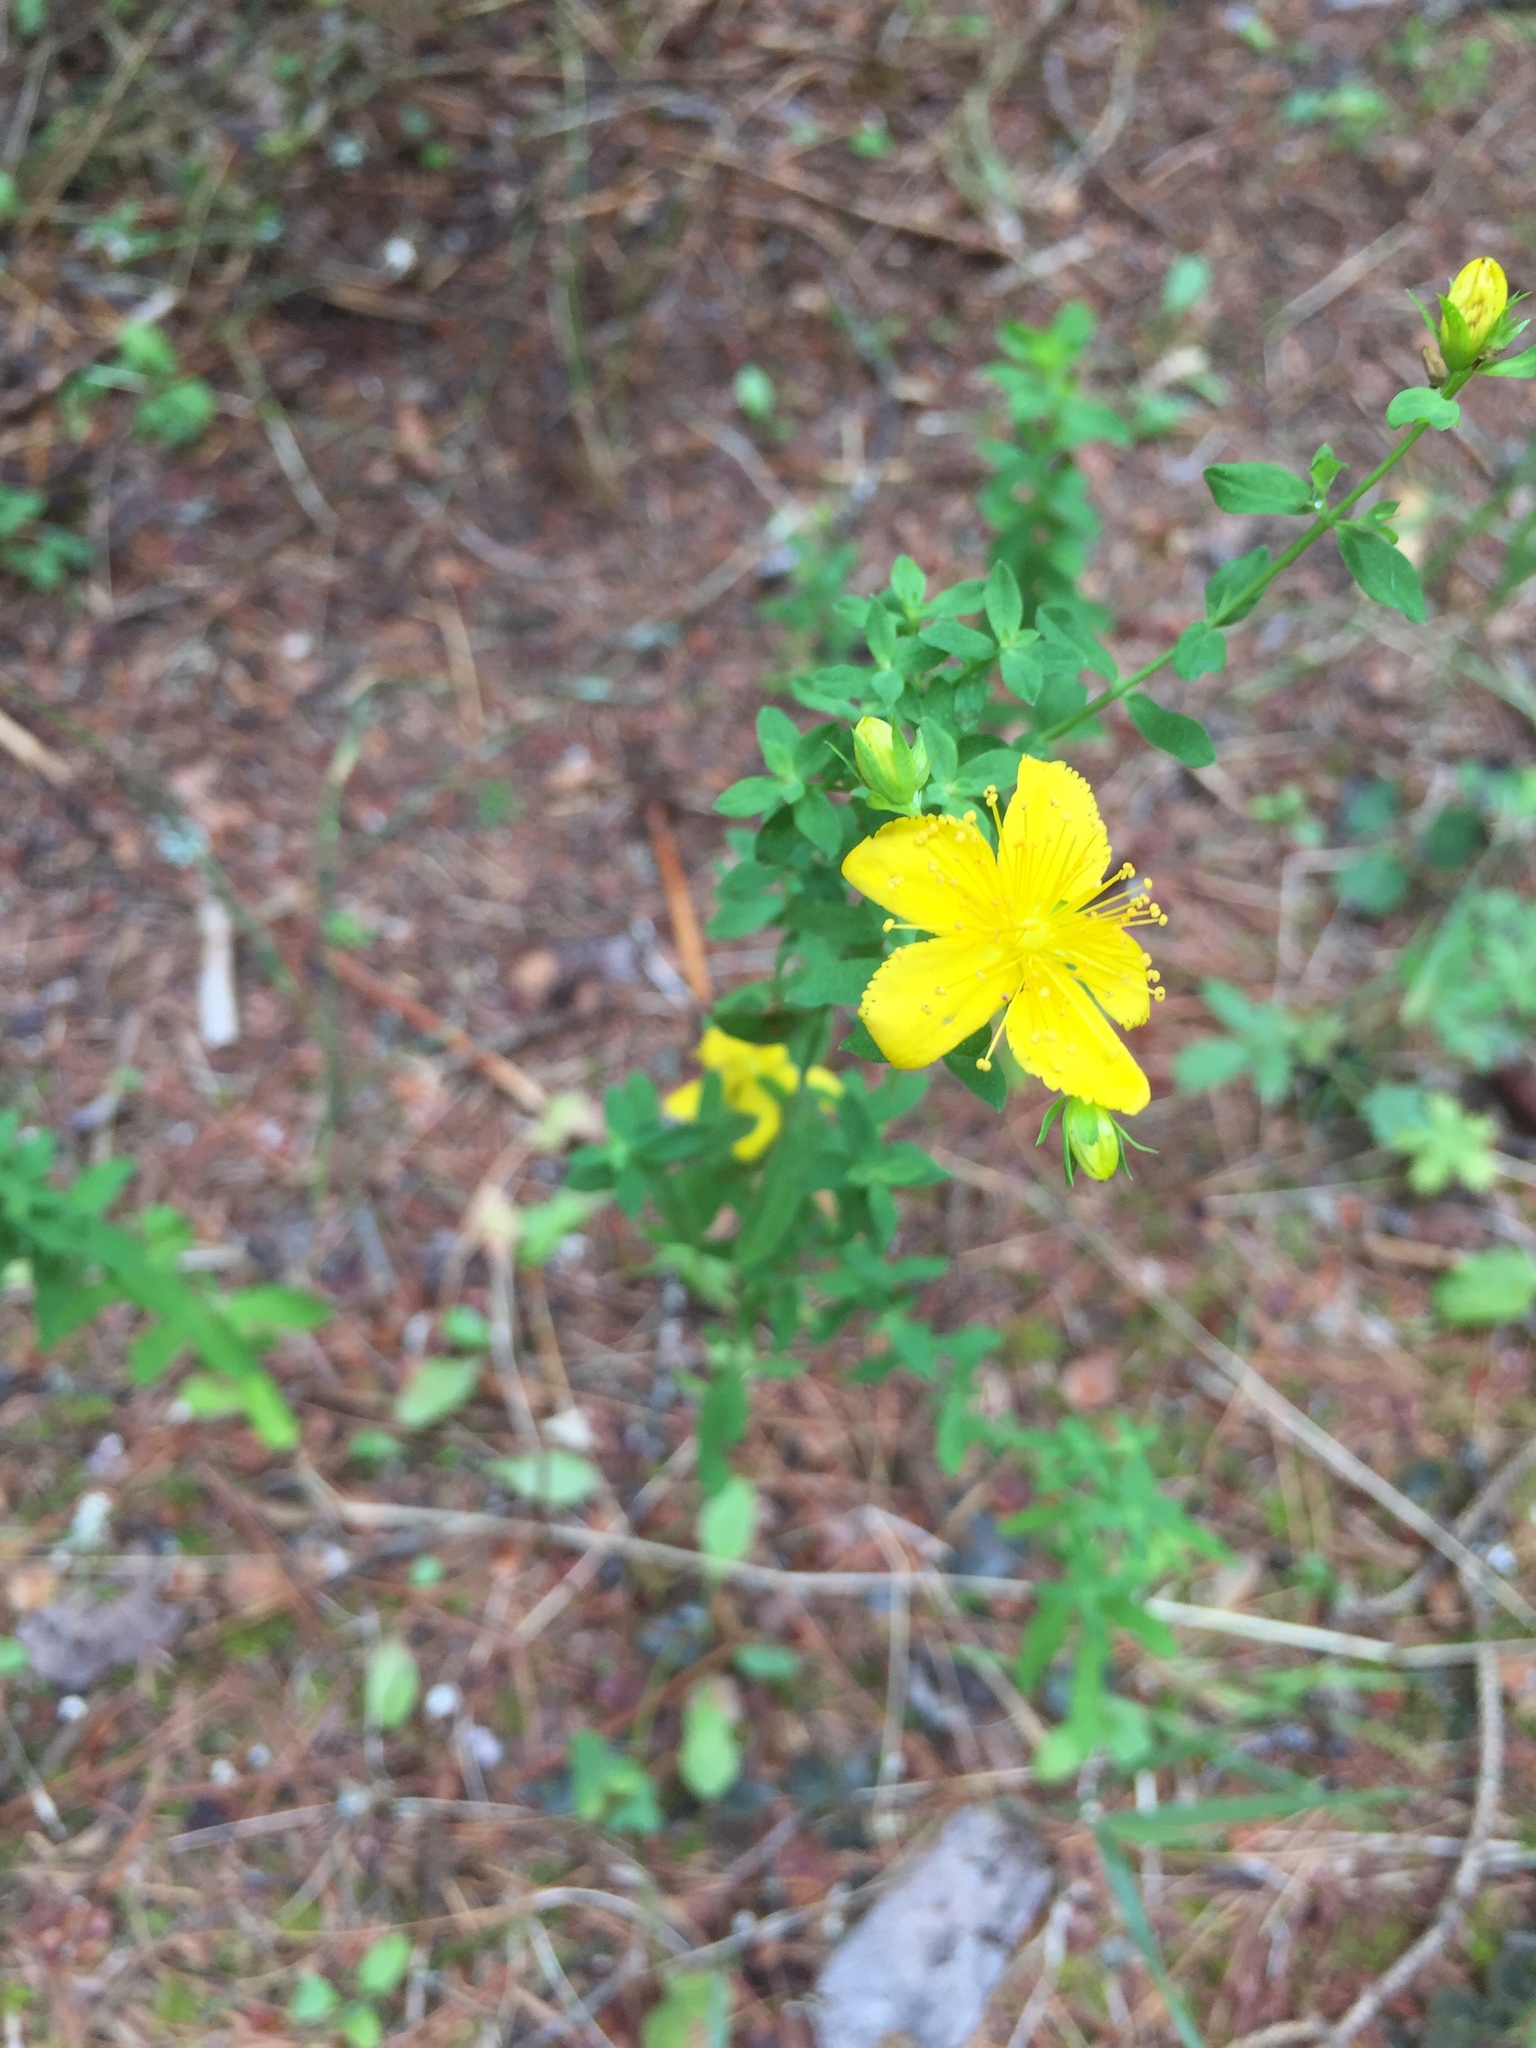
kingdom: Plantae
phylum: Tracheophyta
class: Magnoliopsida
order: Malpighiales
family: Hypericaceae
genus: Hypericum
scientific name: Hypericum perforatum
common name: Common st. johnswort
